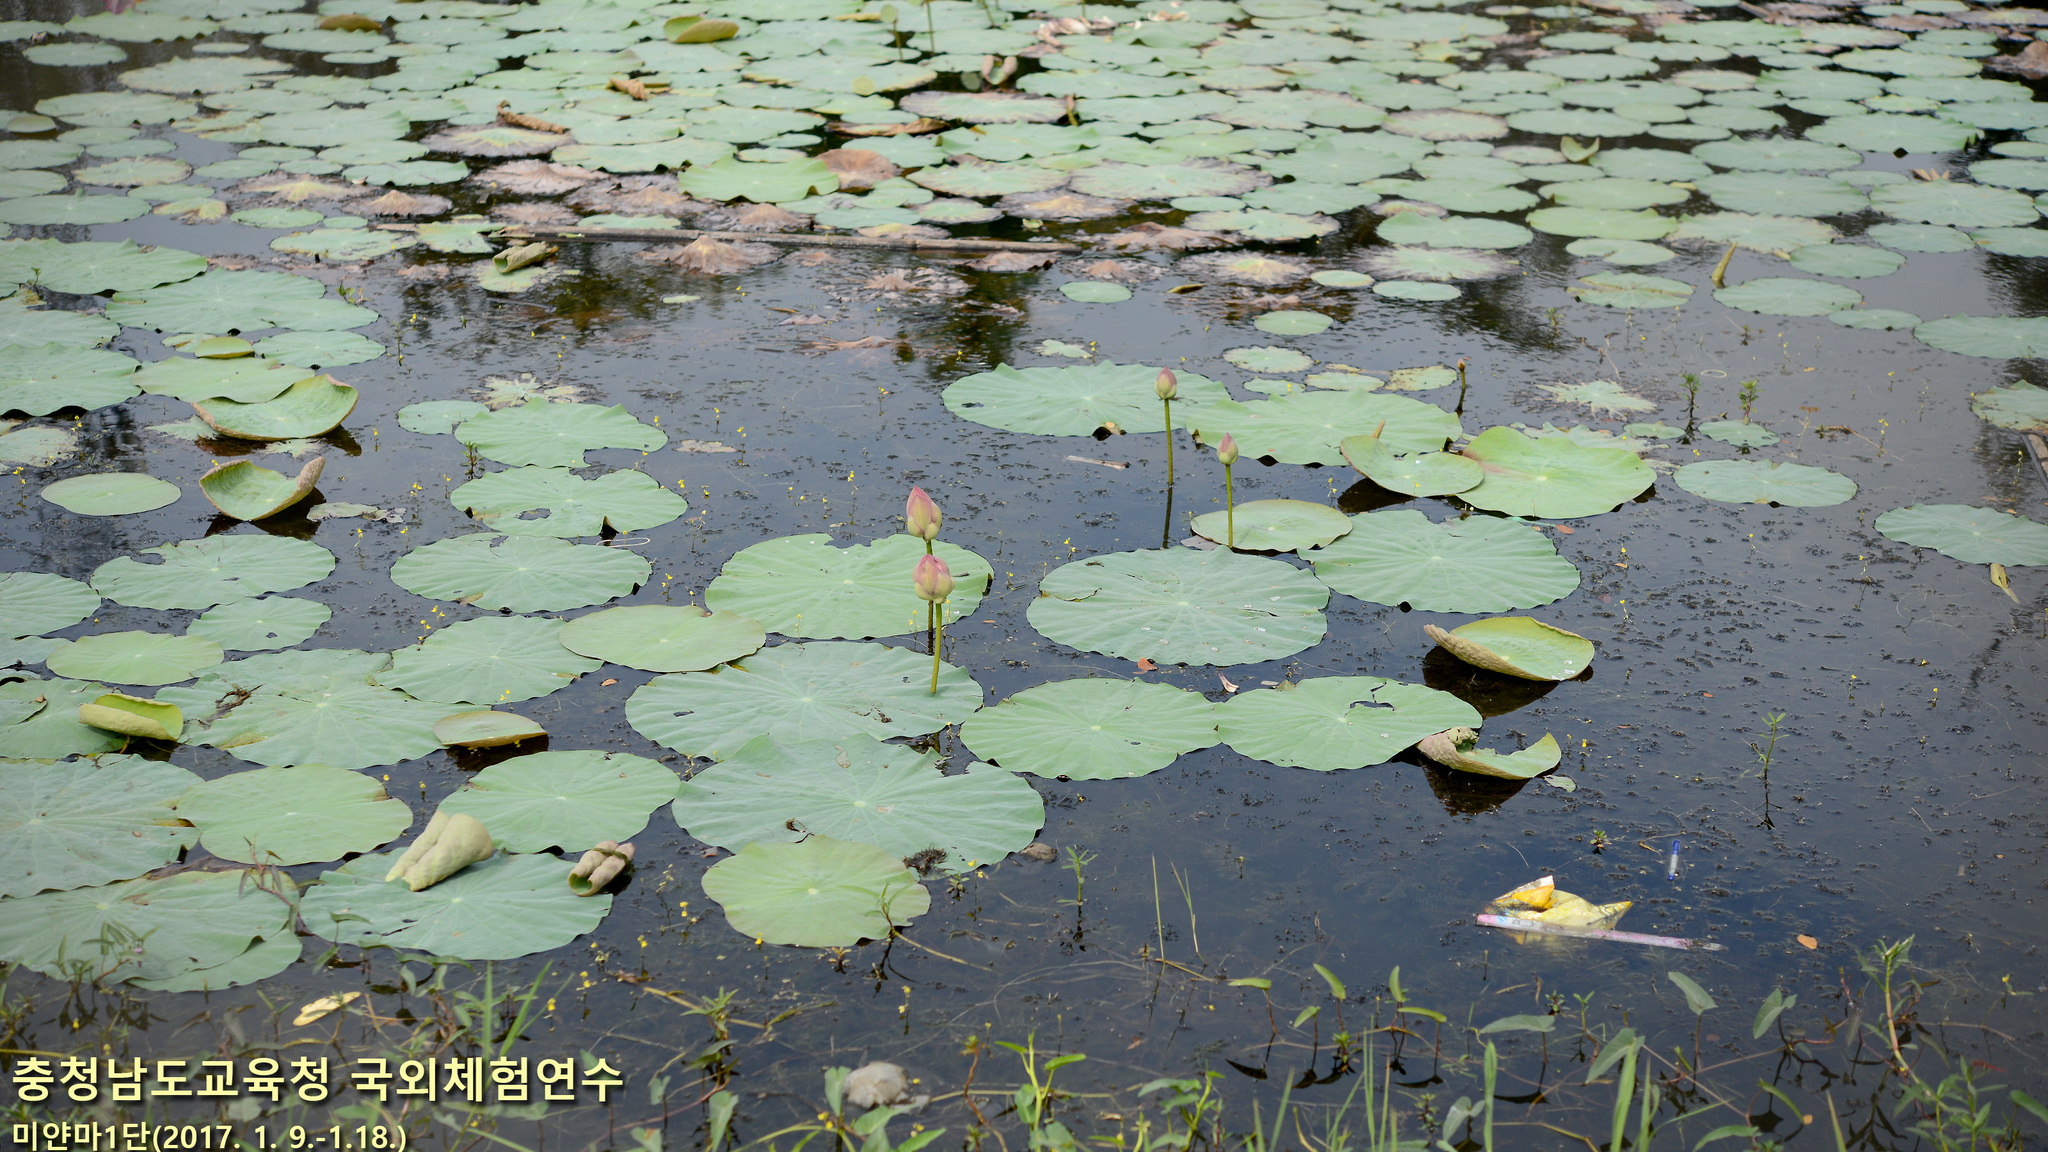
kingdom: Plantae
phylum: Tracheophyta
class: Magnoliopsida
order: Proteales
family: Nelumbonaceae
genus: Nelumbo
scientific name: Nelumbo nucifera
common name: Sacred lotus
